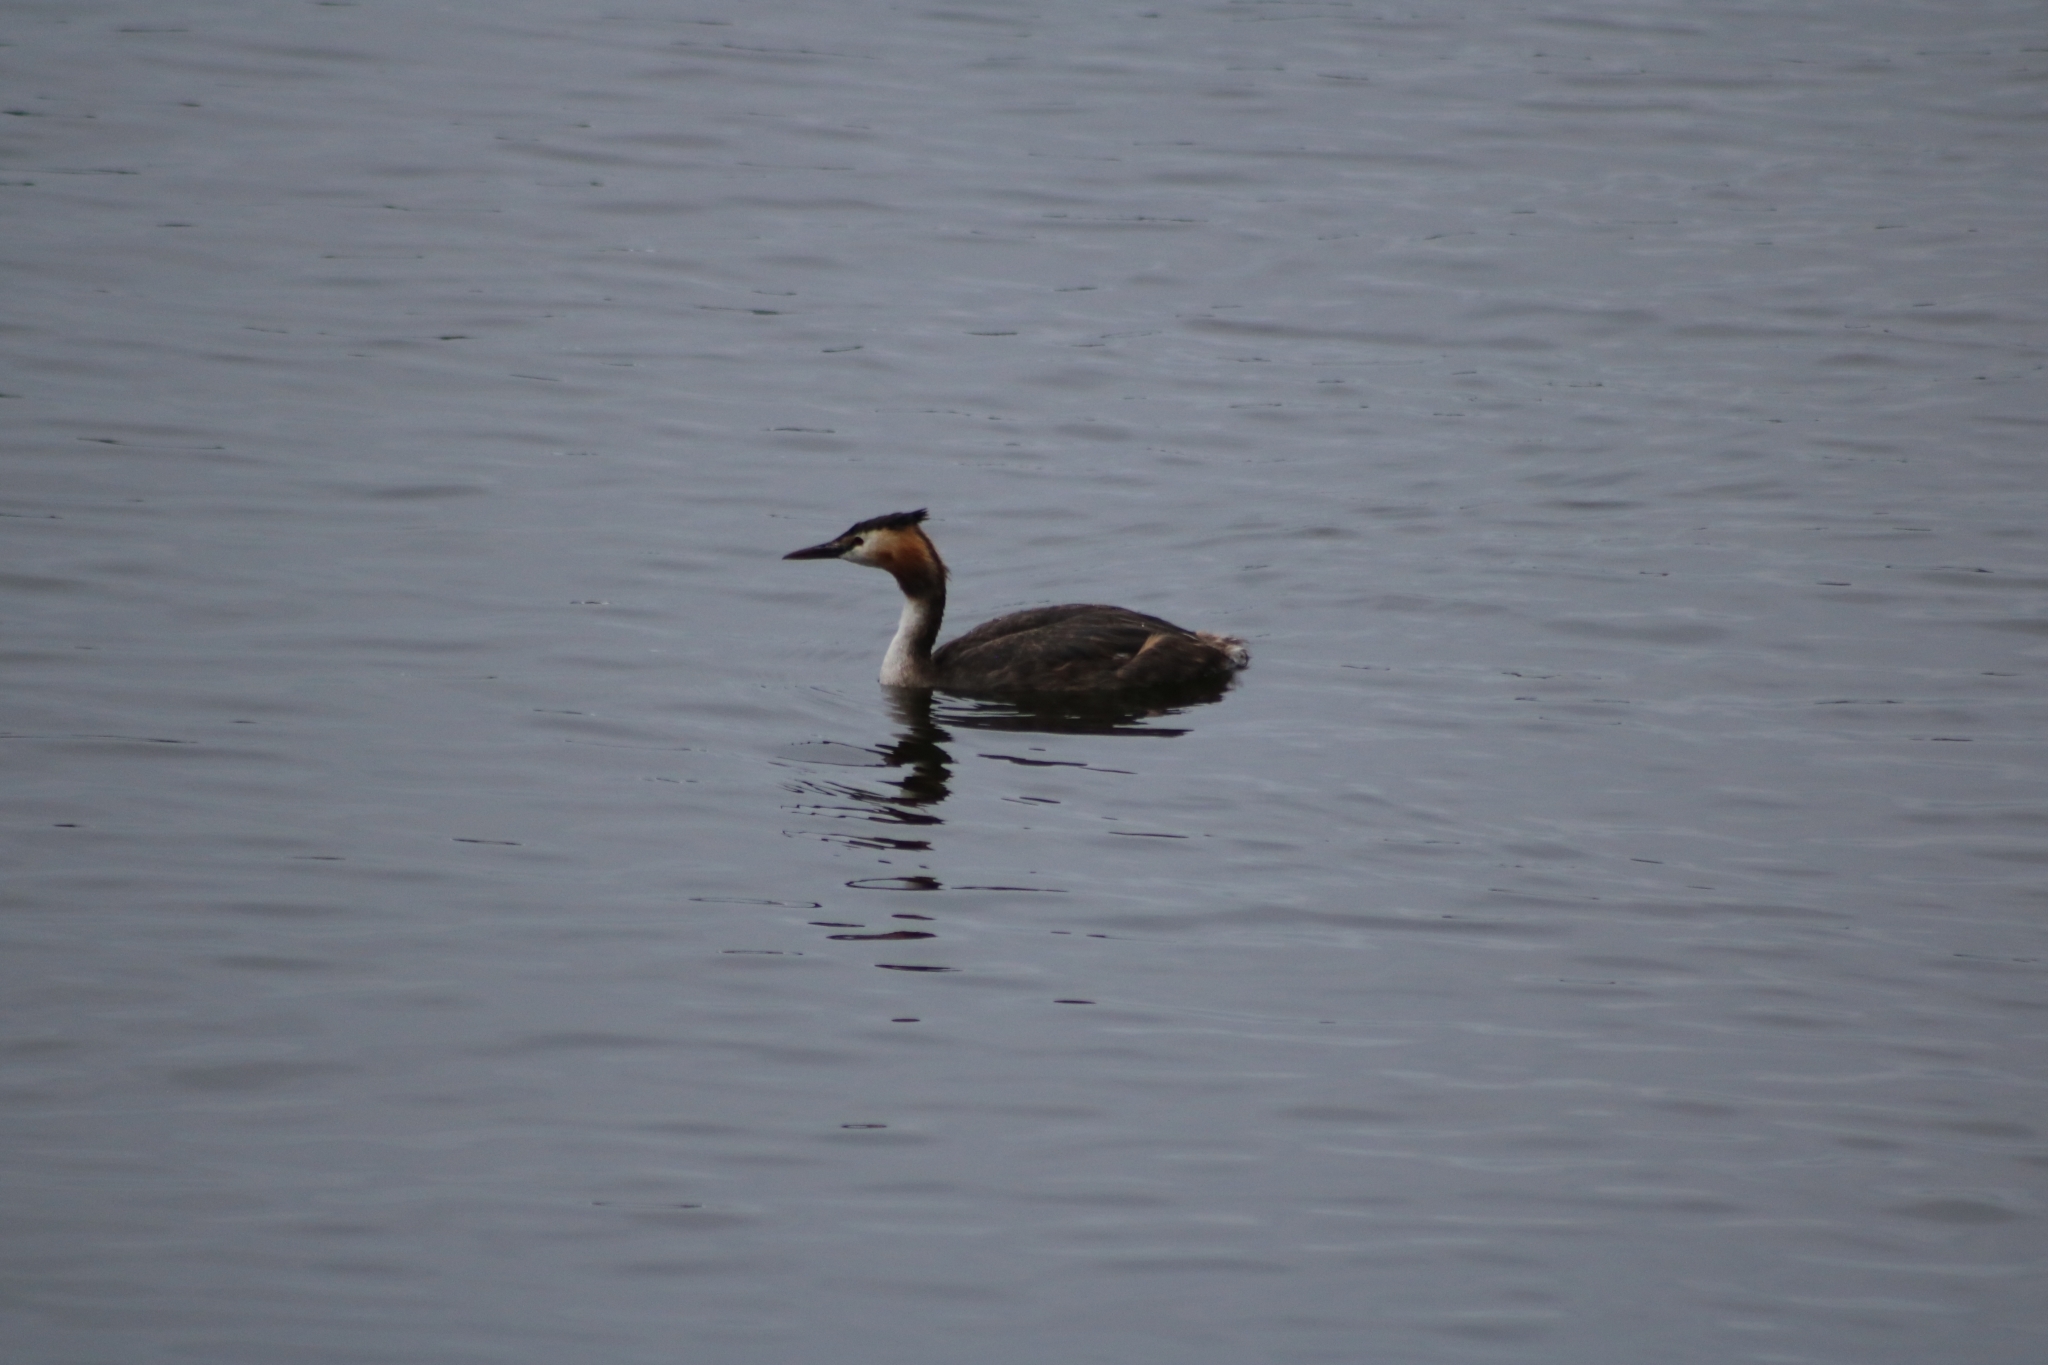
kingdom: Animalia
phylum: Chordata
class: Aves
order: Podicipediformes
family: Podicipedidae
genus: Podiceps
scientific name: Podiceps cristatus
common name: Great crested grebe
